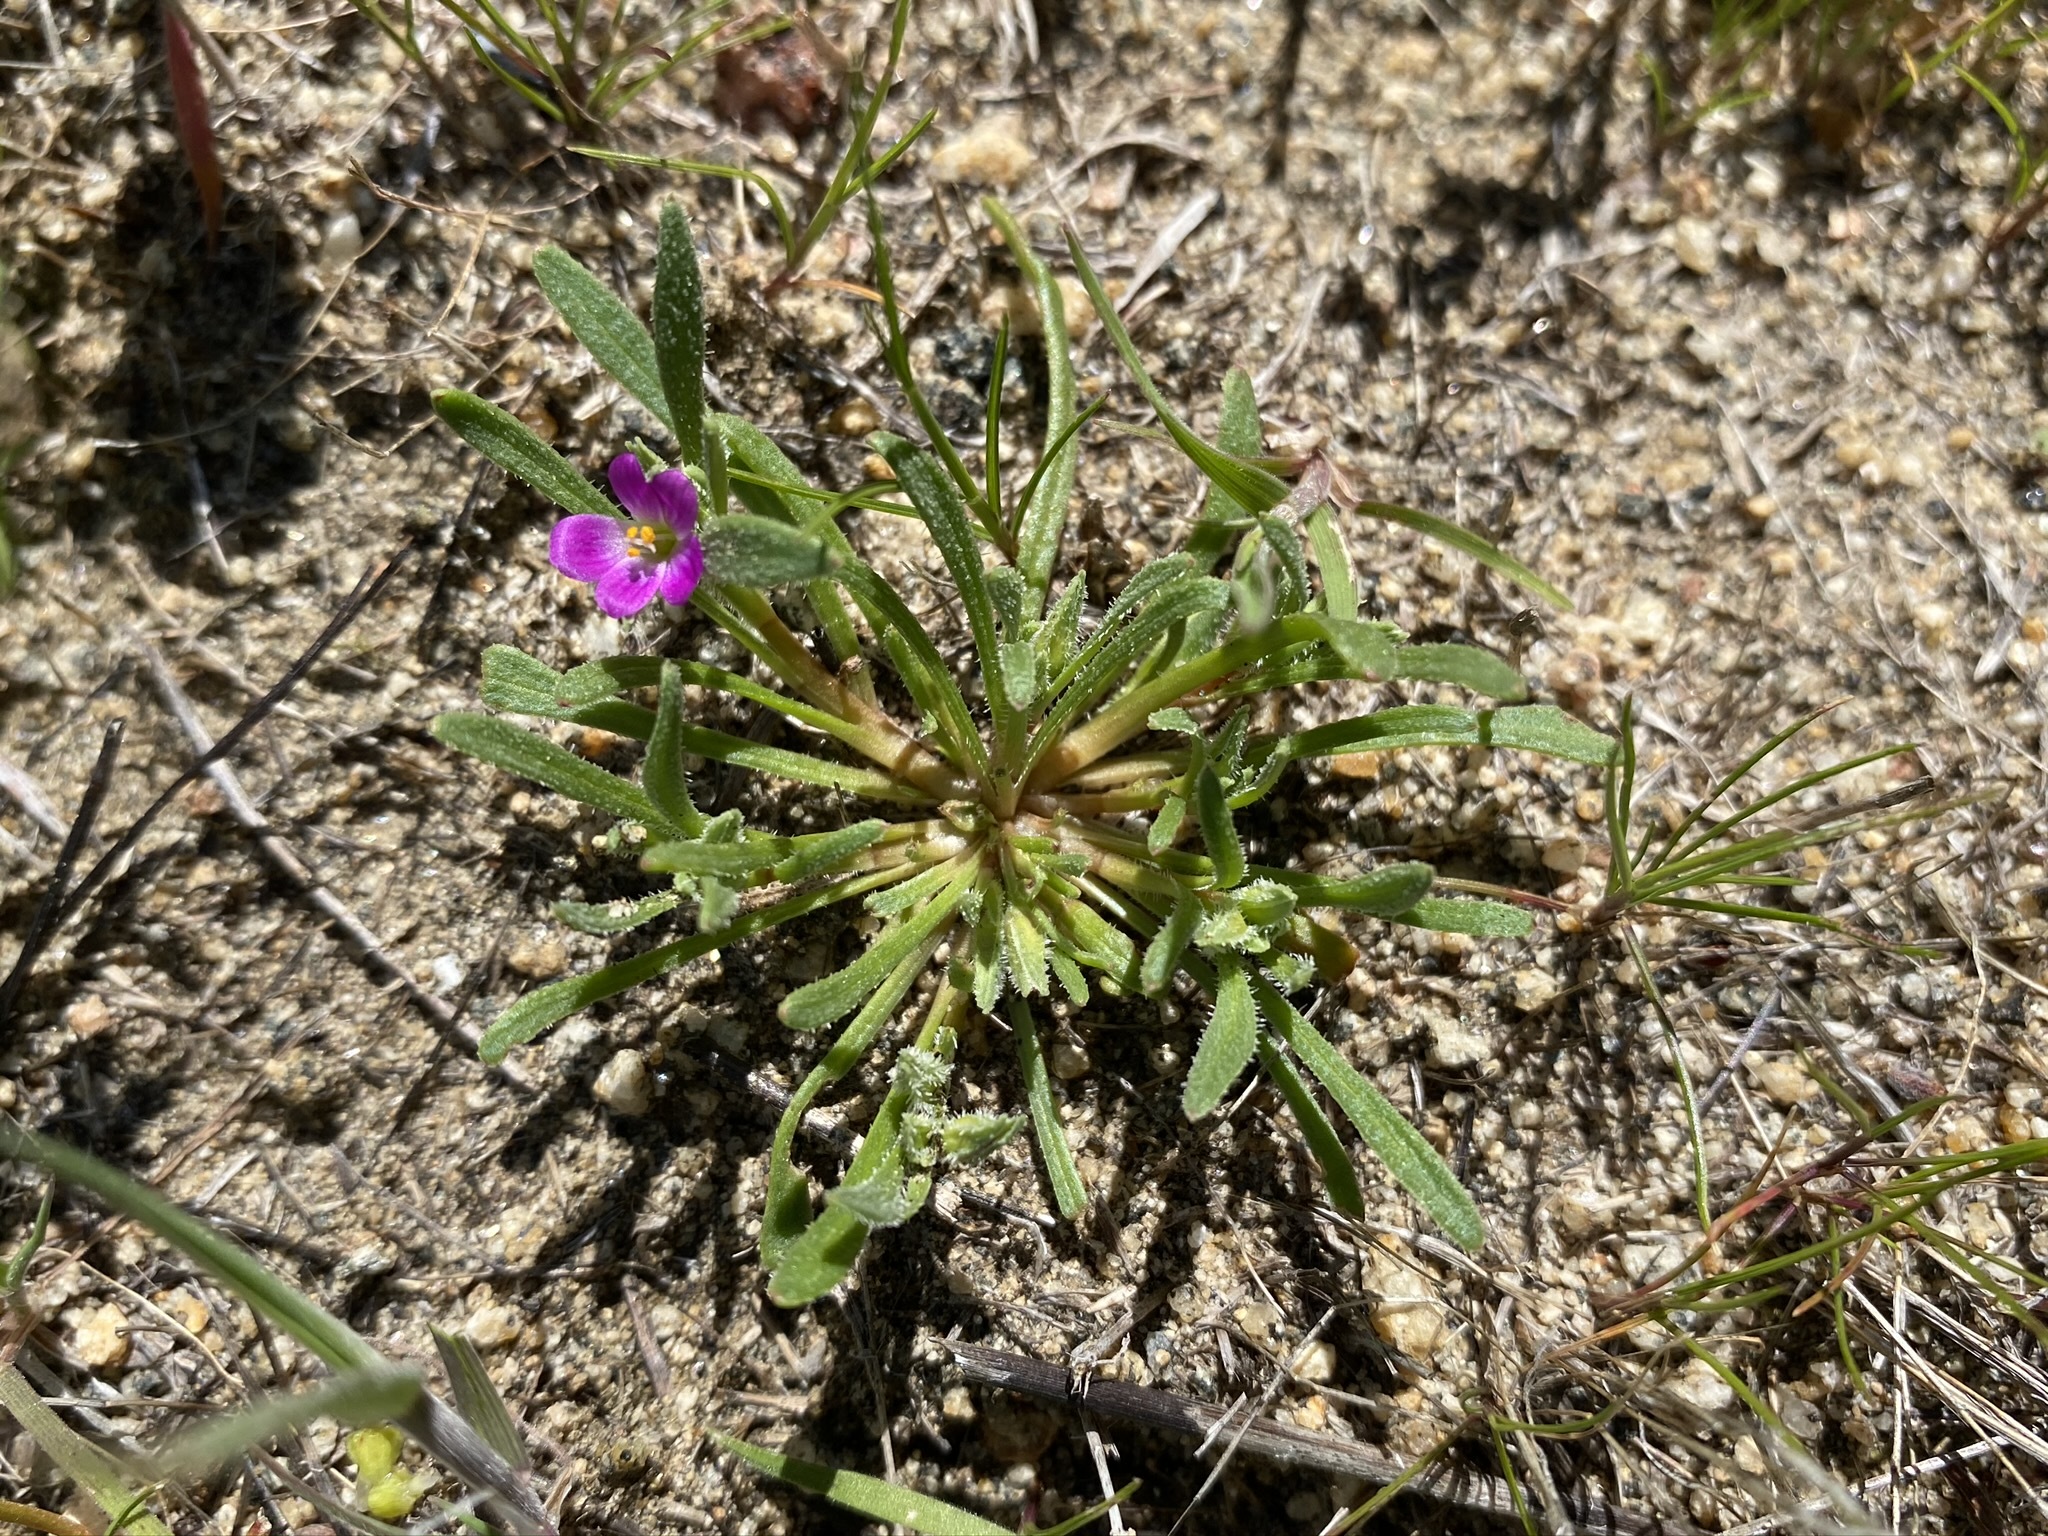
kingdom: Plantae
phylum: Tracheophyta
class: Magnoliopsida
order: Caryophyllales
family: Montiaceae
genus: Calandrinia
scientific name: Calandrinia menziesii
